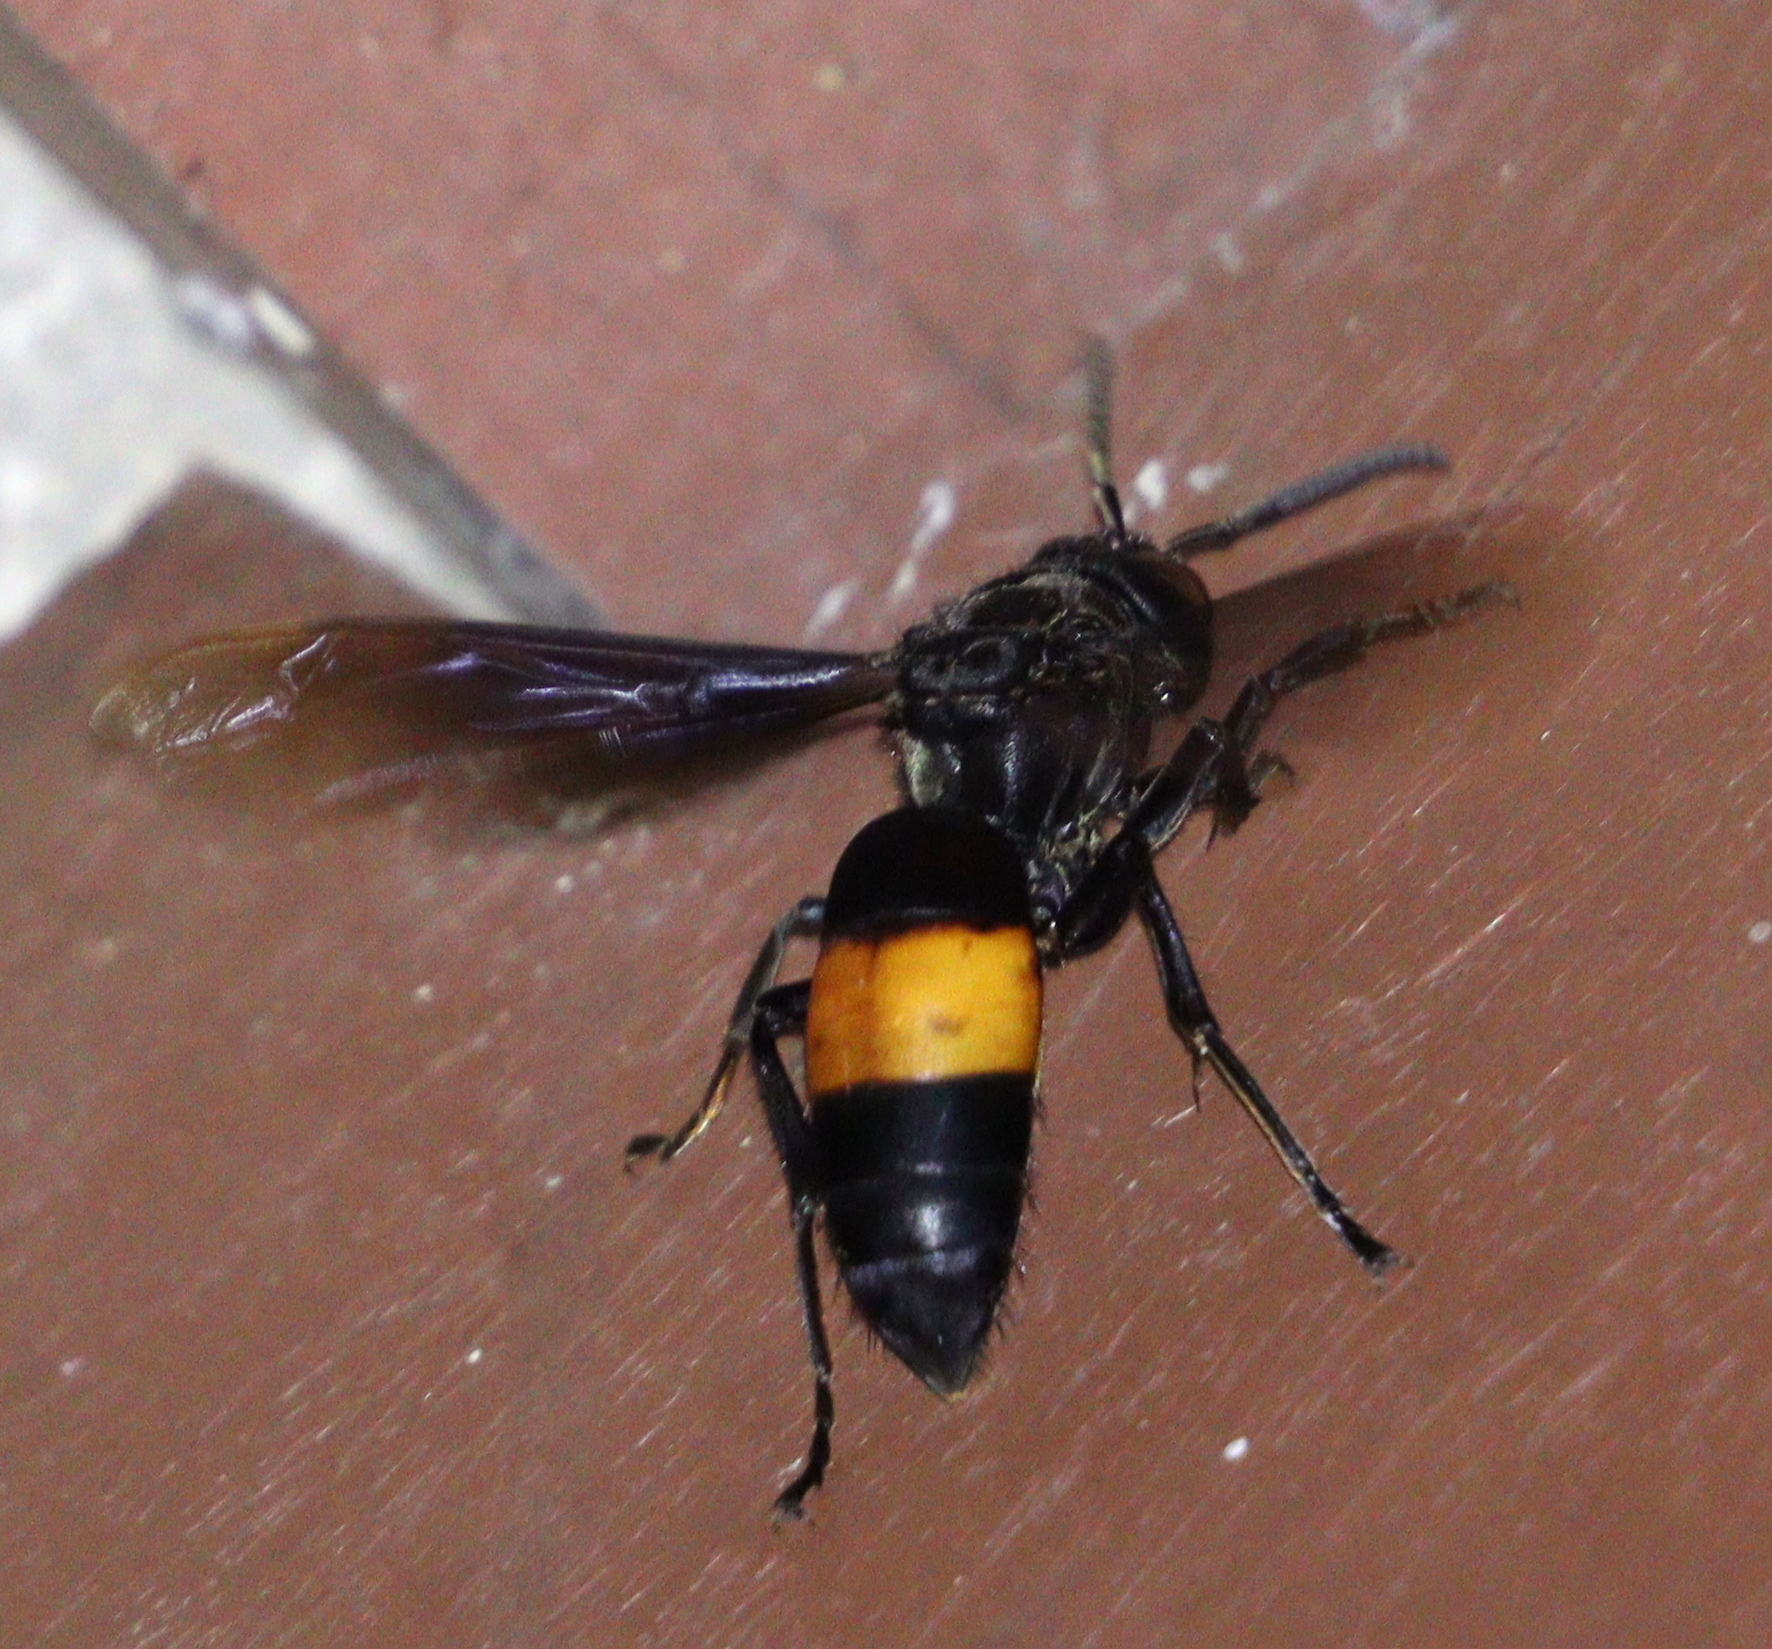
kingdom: Animalia
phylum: Arthropoda
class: Insecta
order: Hymenoptera
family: Vespidae
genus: Vespa
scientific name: Vespa tropica
